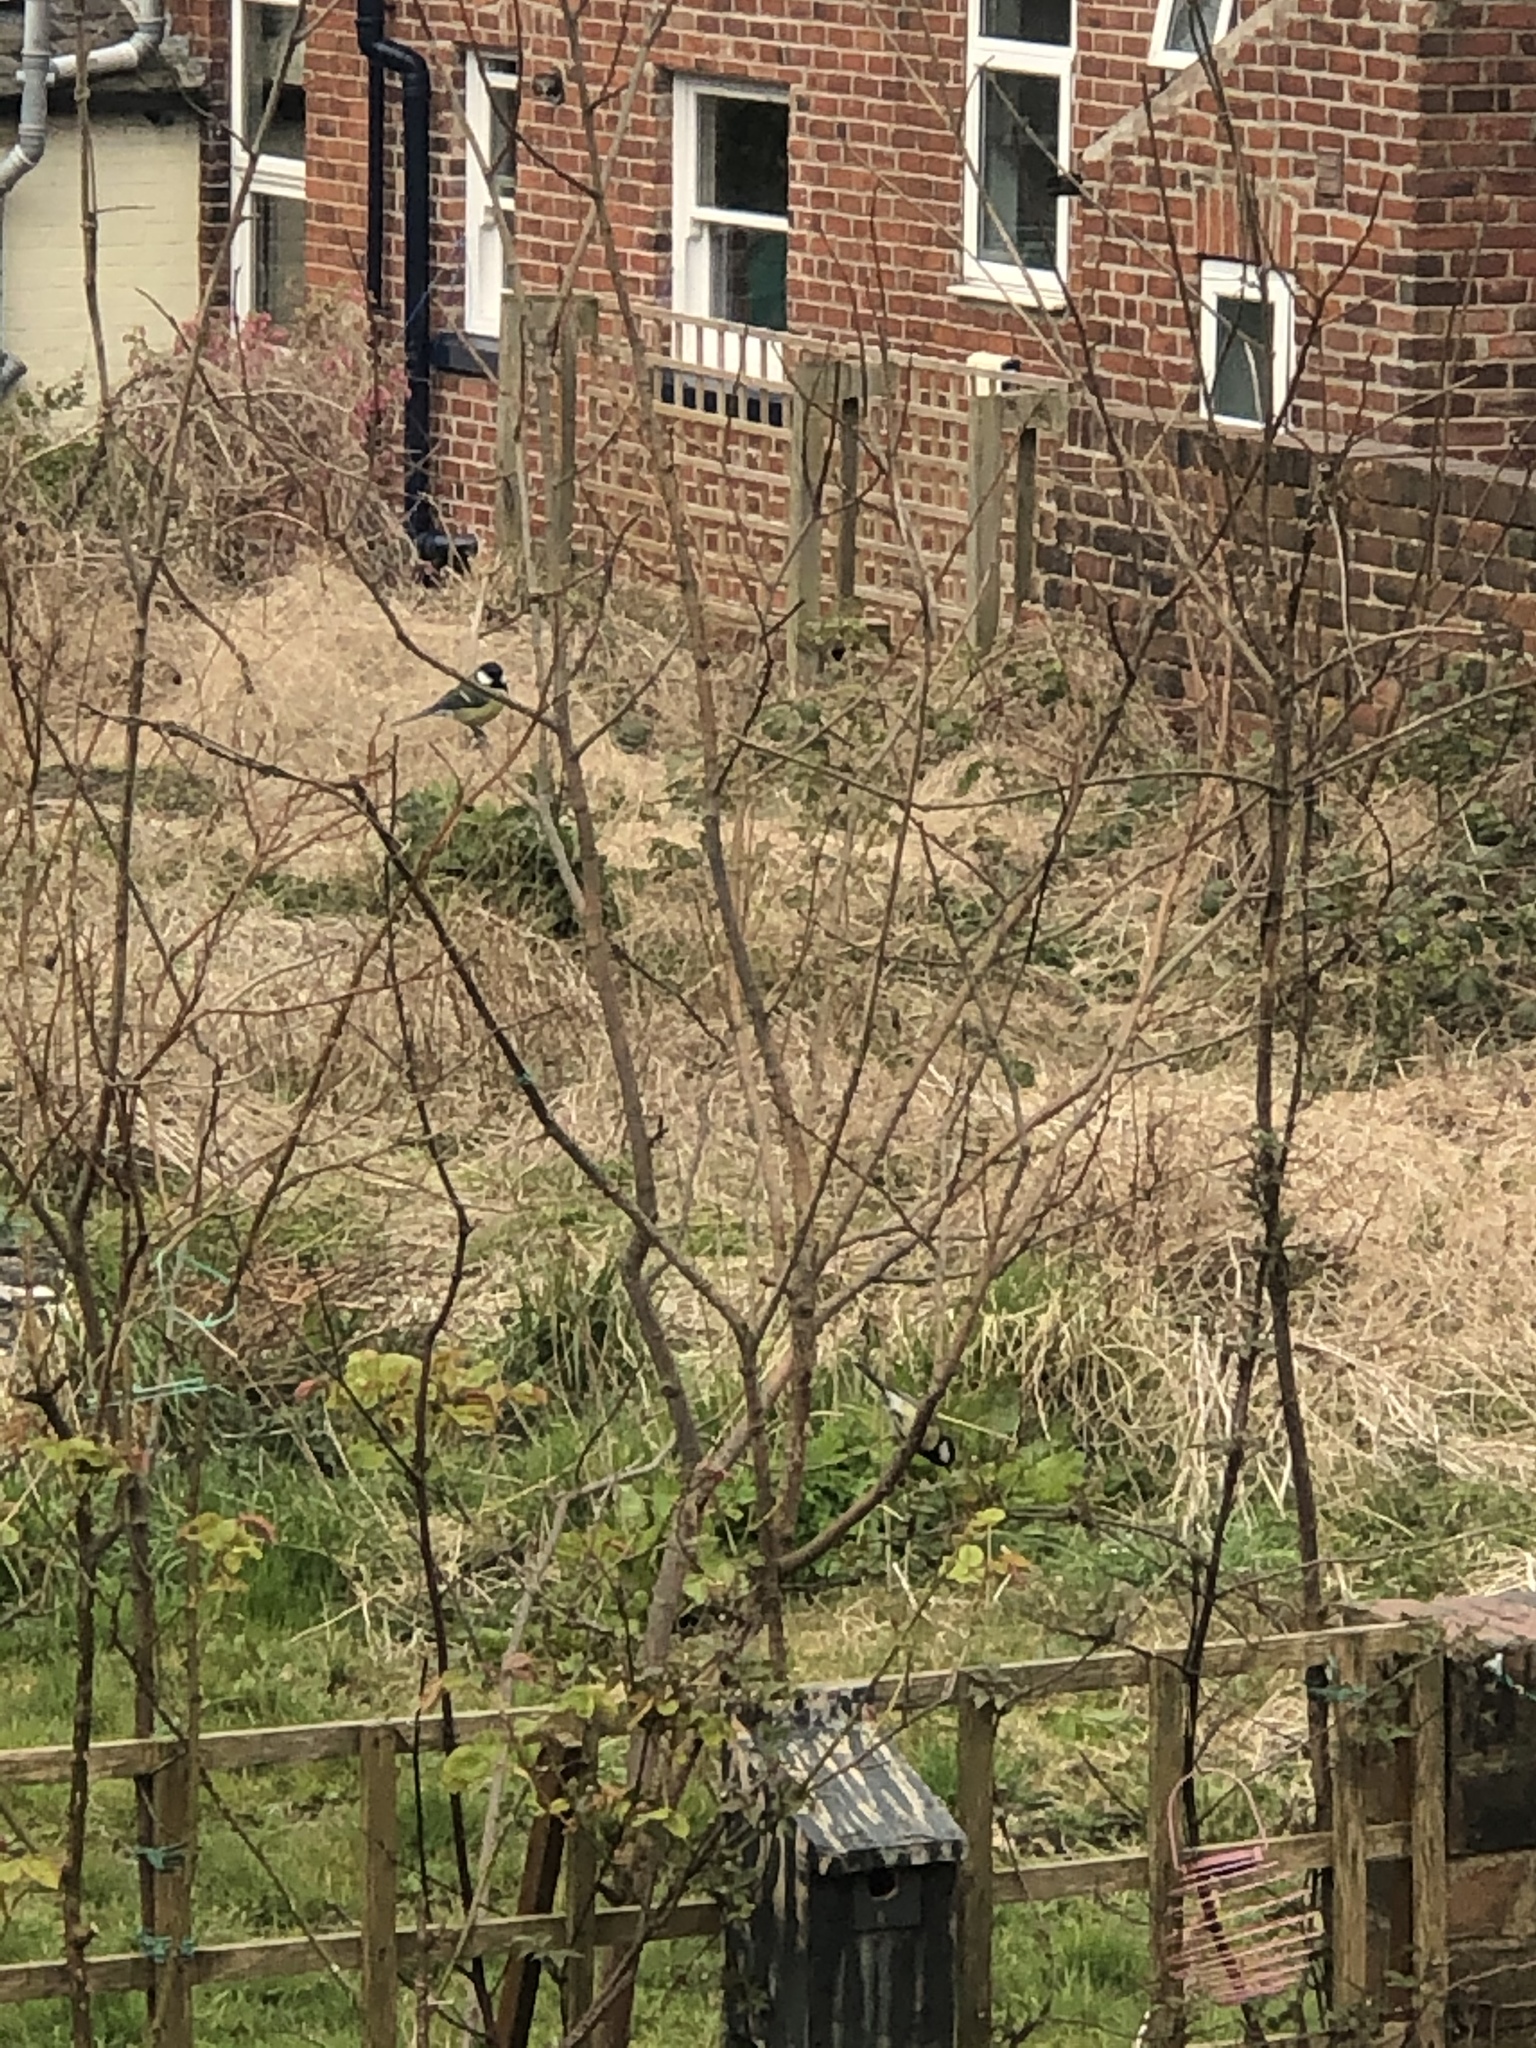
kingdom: Animalia
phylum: Chordata
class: Aves
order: Passeriformes
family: Paridae
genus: Parus
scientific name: Parus major
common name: Great tit
